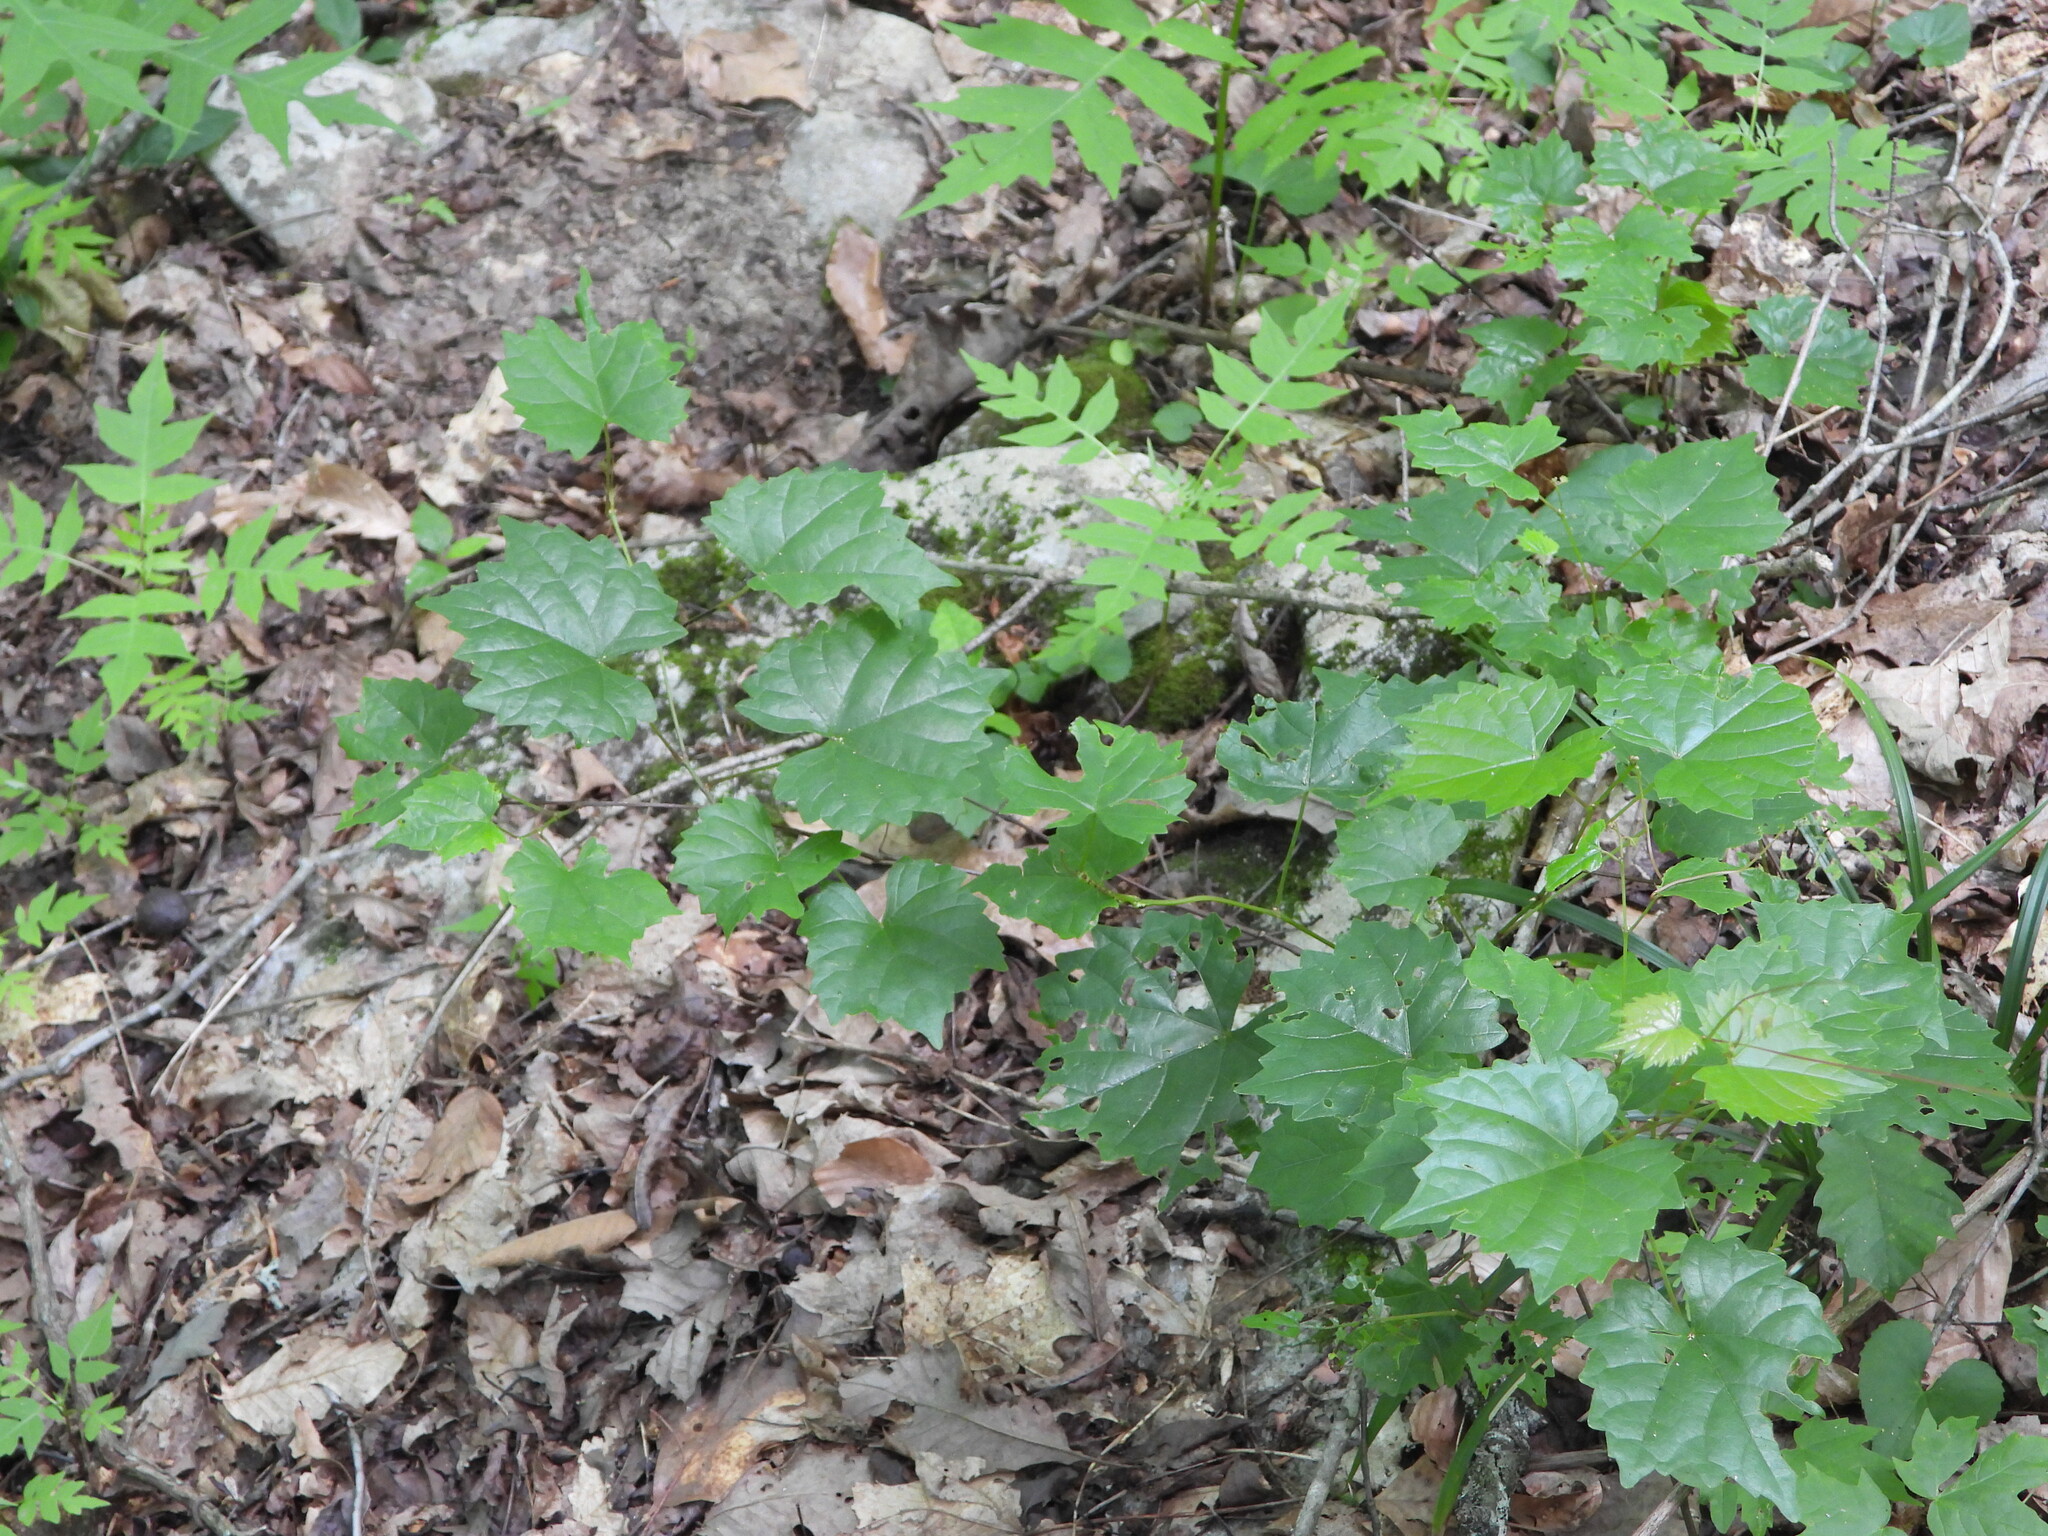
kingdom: Plantae
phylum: Tracheophyta
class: Magnoliopsida
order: Vitales
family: Vitaceae
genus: Vitis
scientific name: Vitis rotundifolia
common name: Muscadine grape
